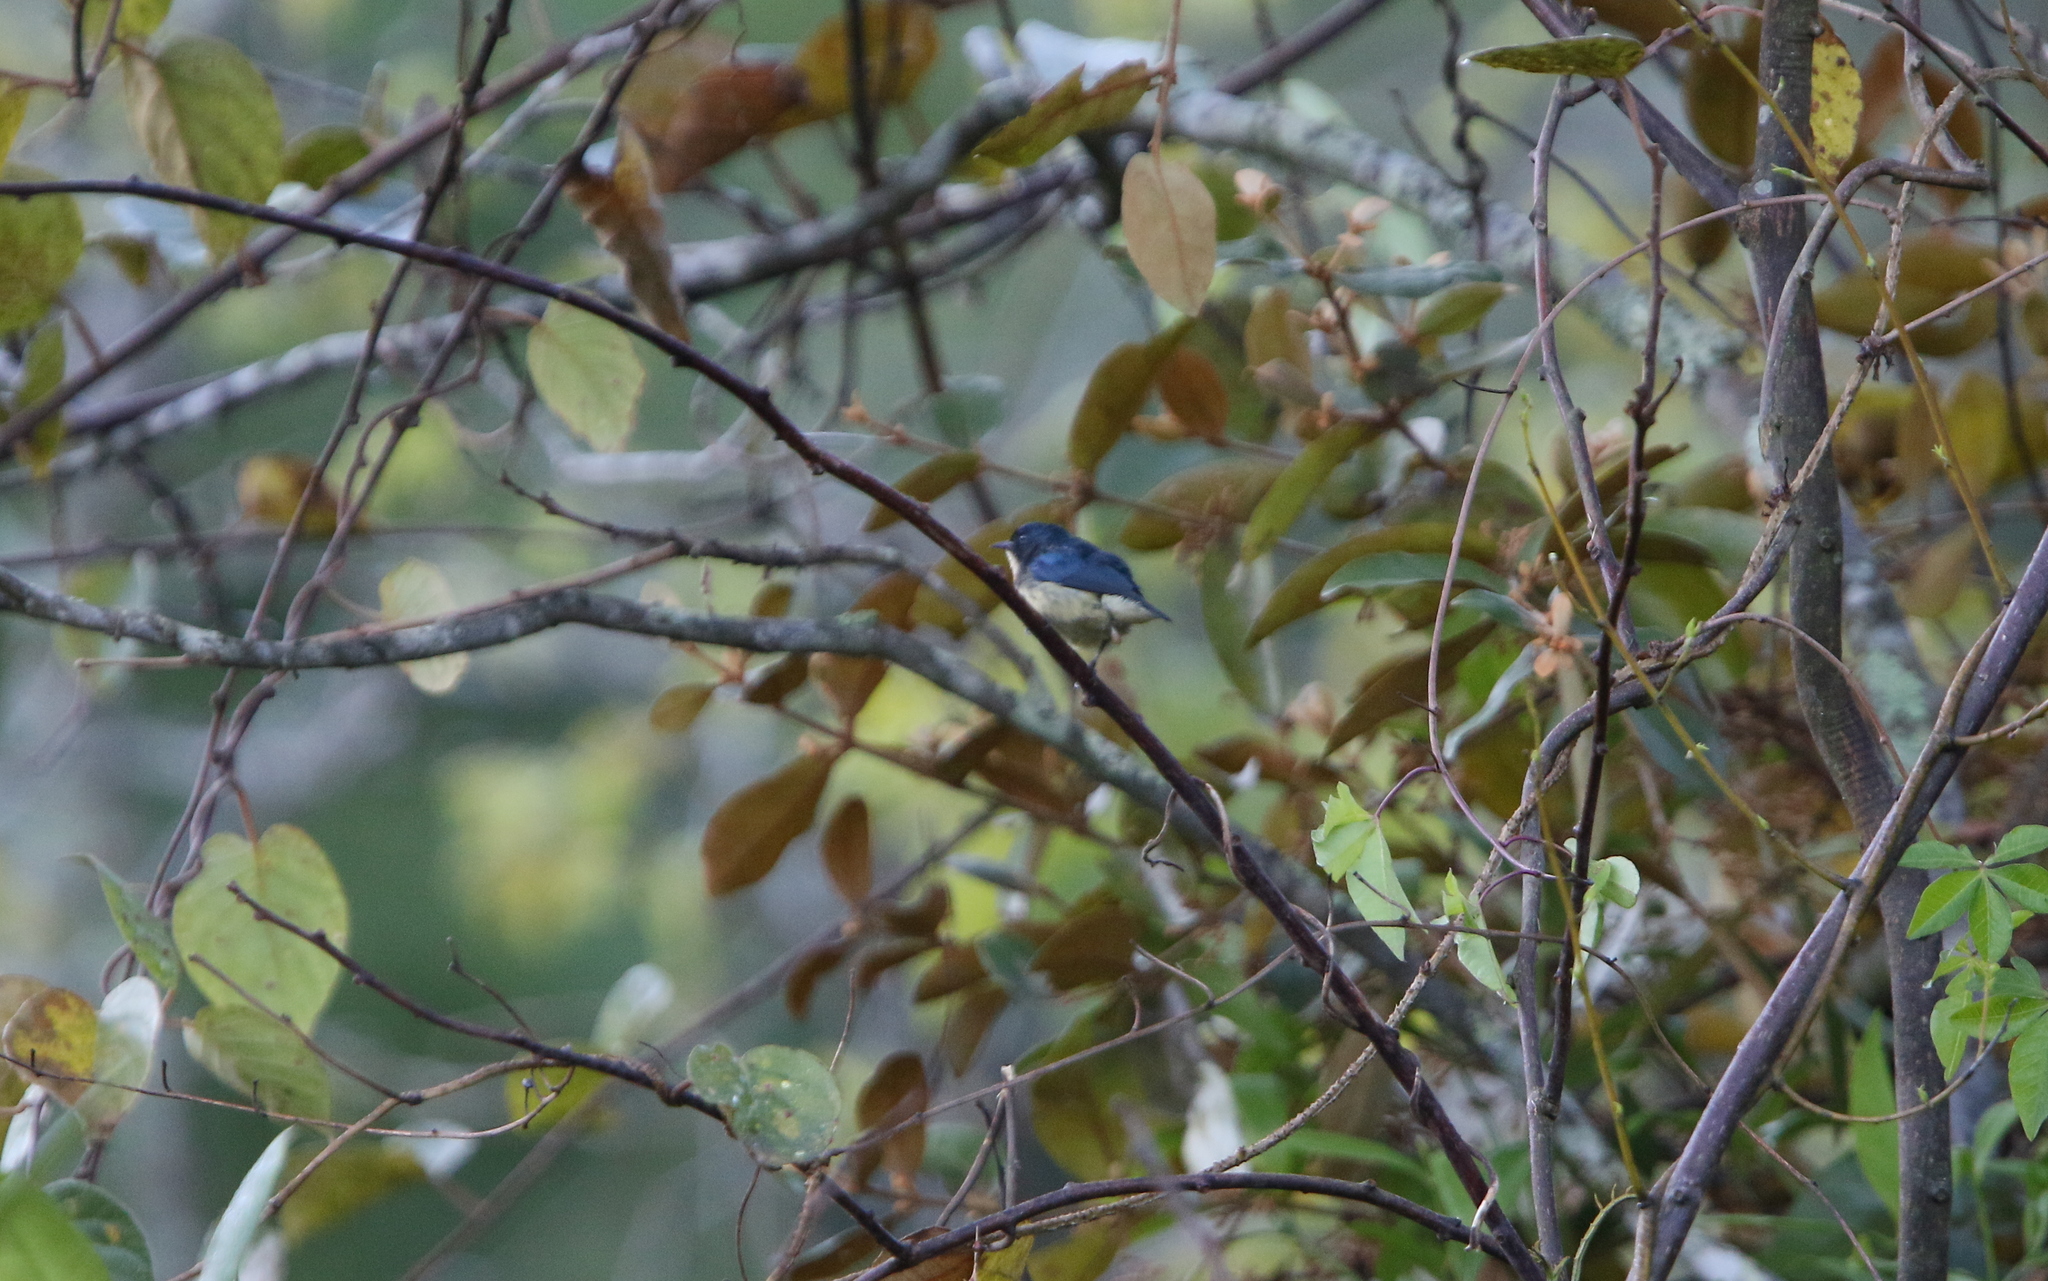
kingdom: Animalia
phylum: Chordata
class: Aves
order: Passeriformes
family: Dicaeidae
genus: Dicaeum
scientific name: Dicaeum ignipectus
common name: Fire-breasted flowerpecker
